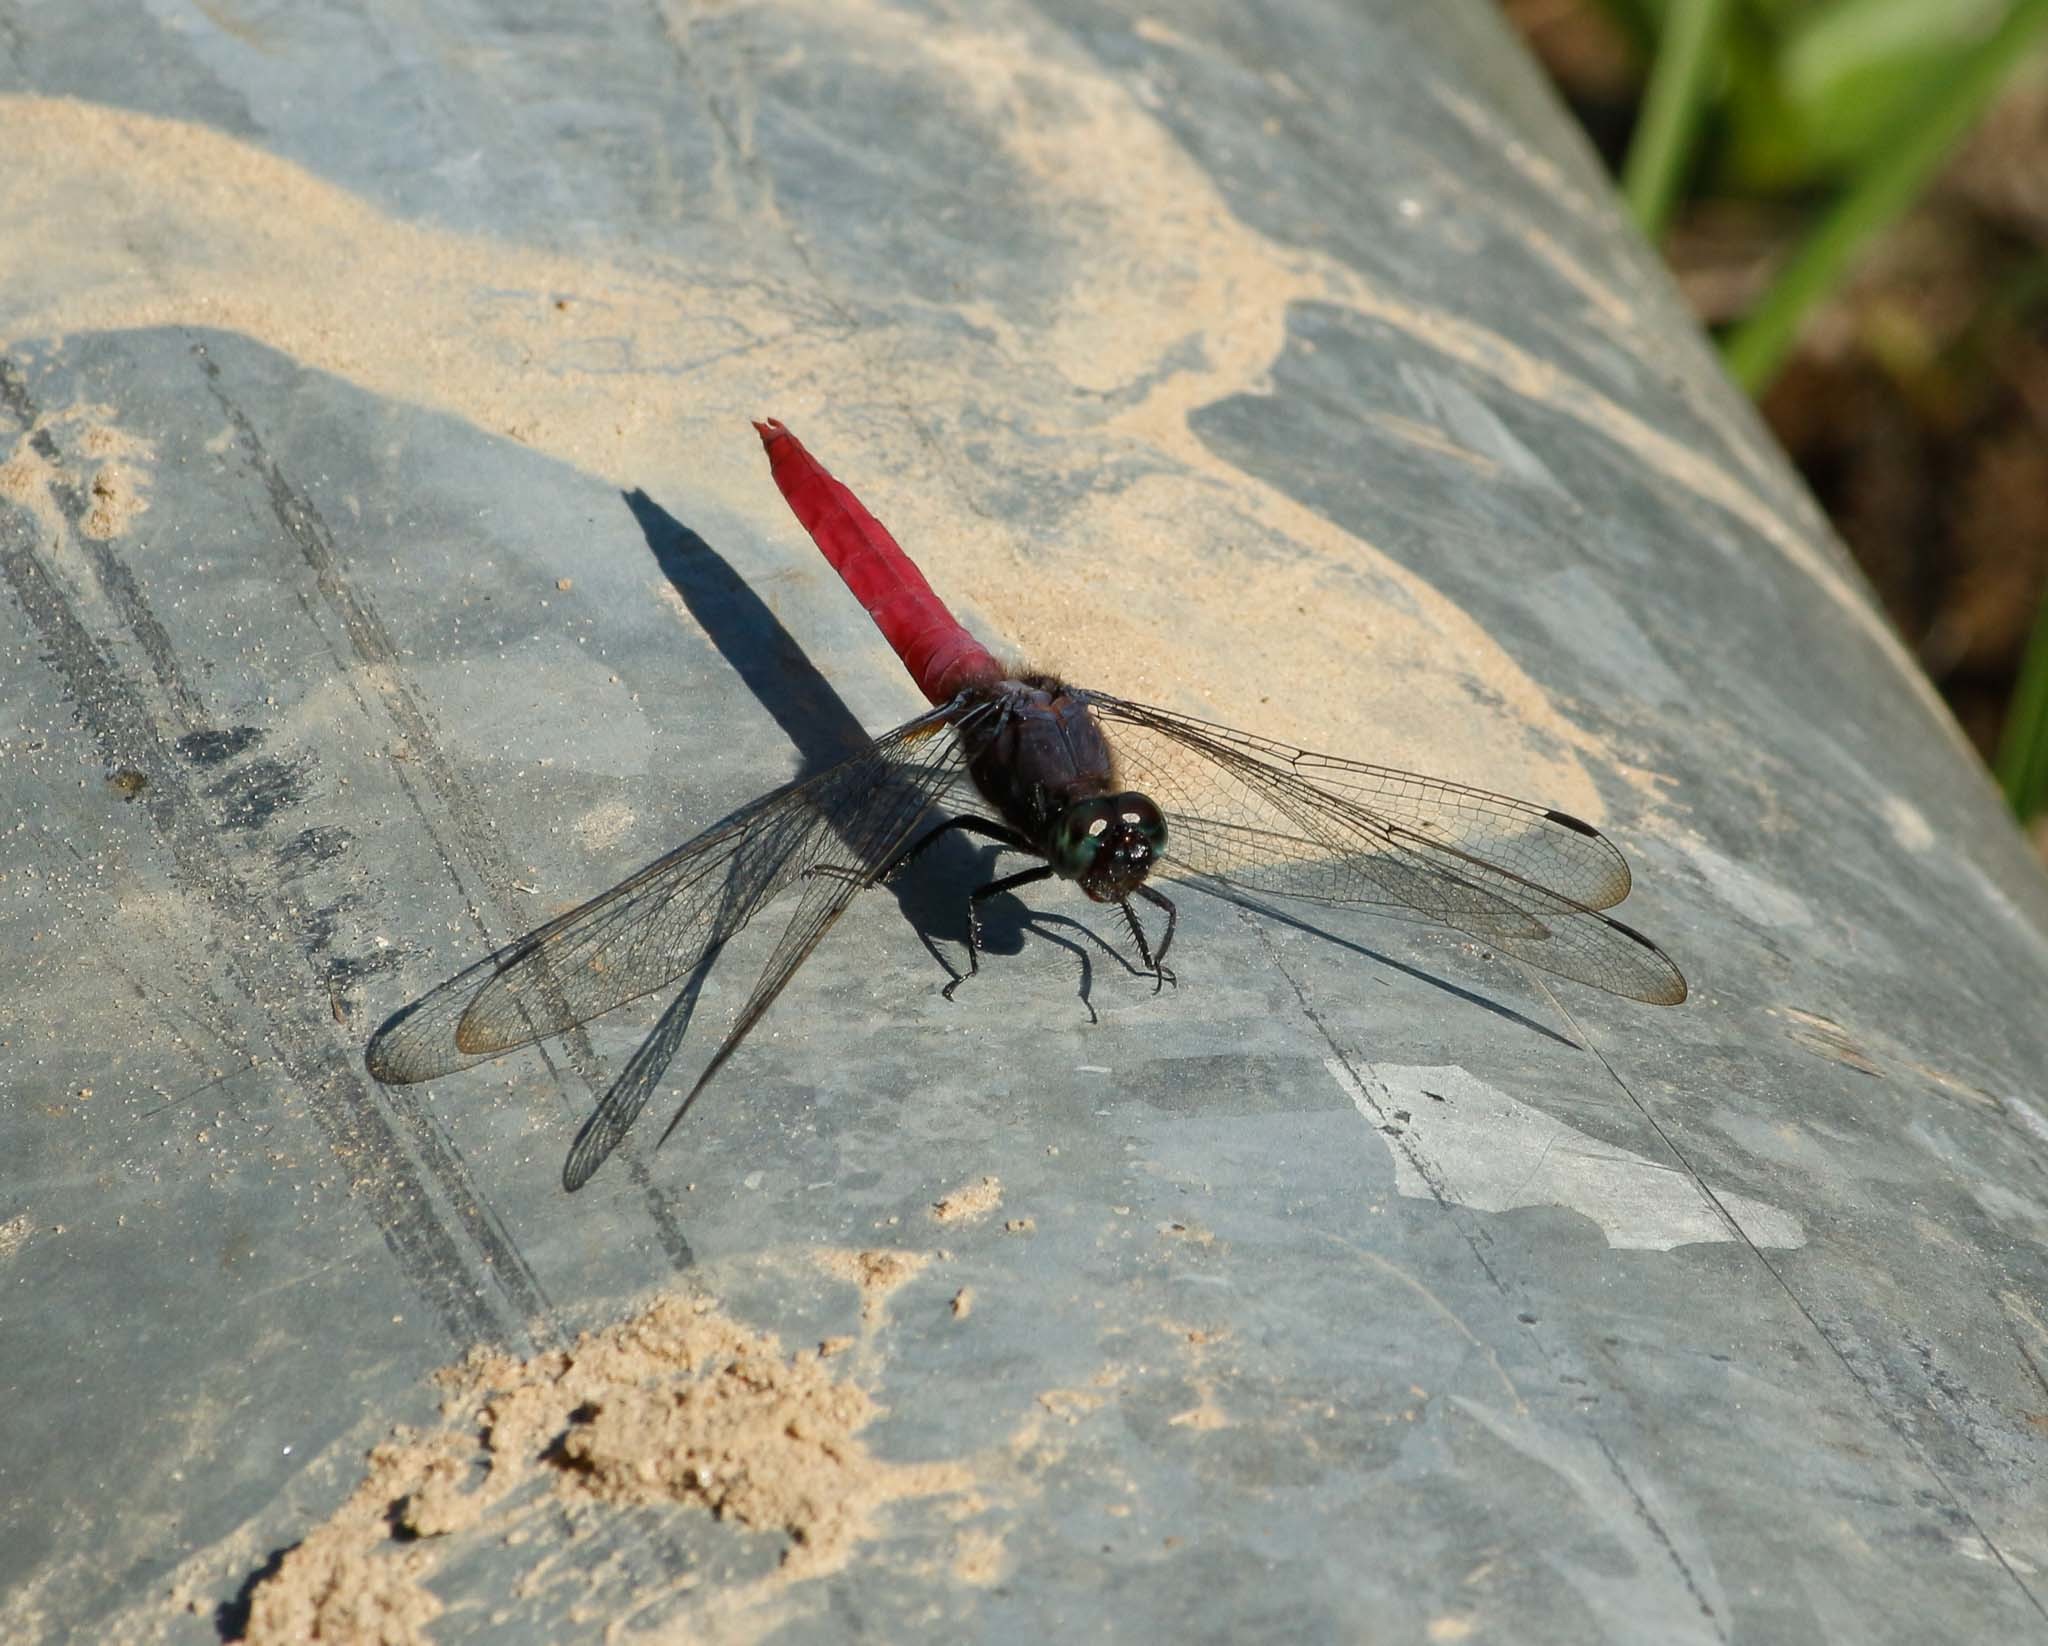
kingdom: Animalia
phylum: Arthropoda
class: Insecta
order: Odonata
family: Libellulidae
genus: Orthetrum
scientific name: Orthetrum pruinosum
